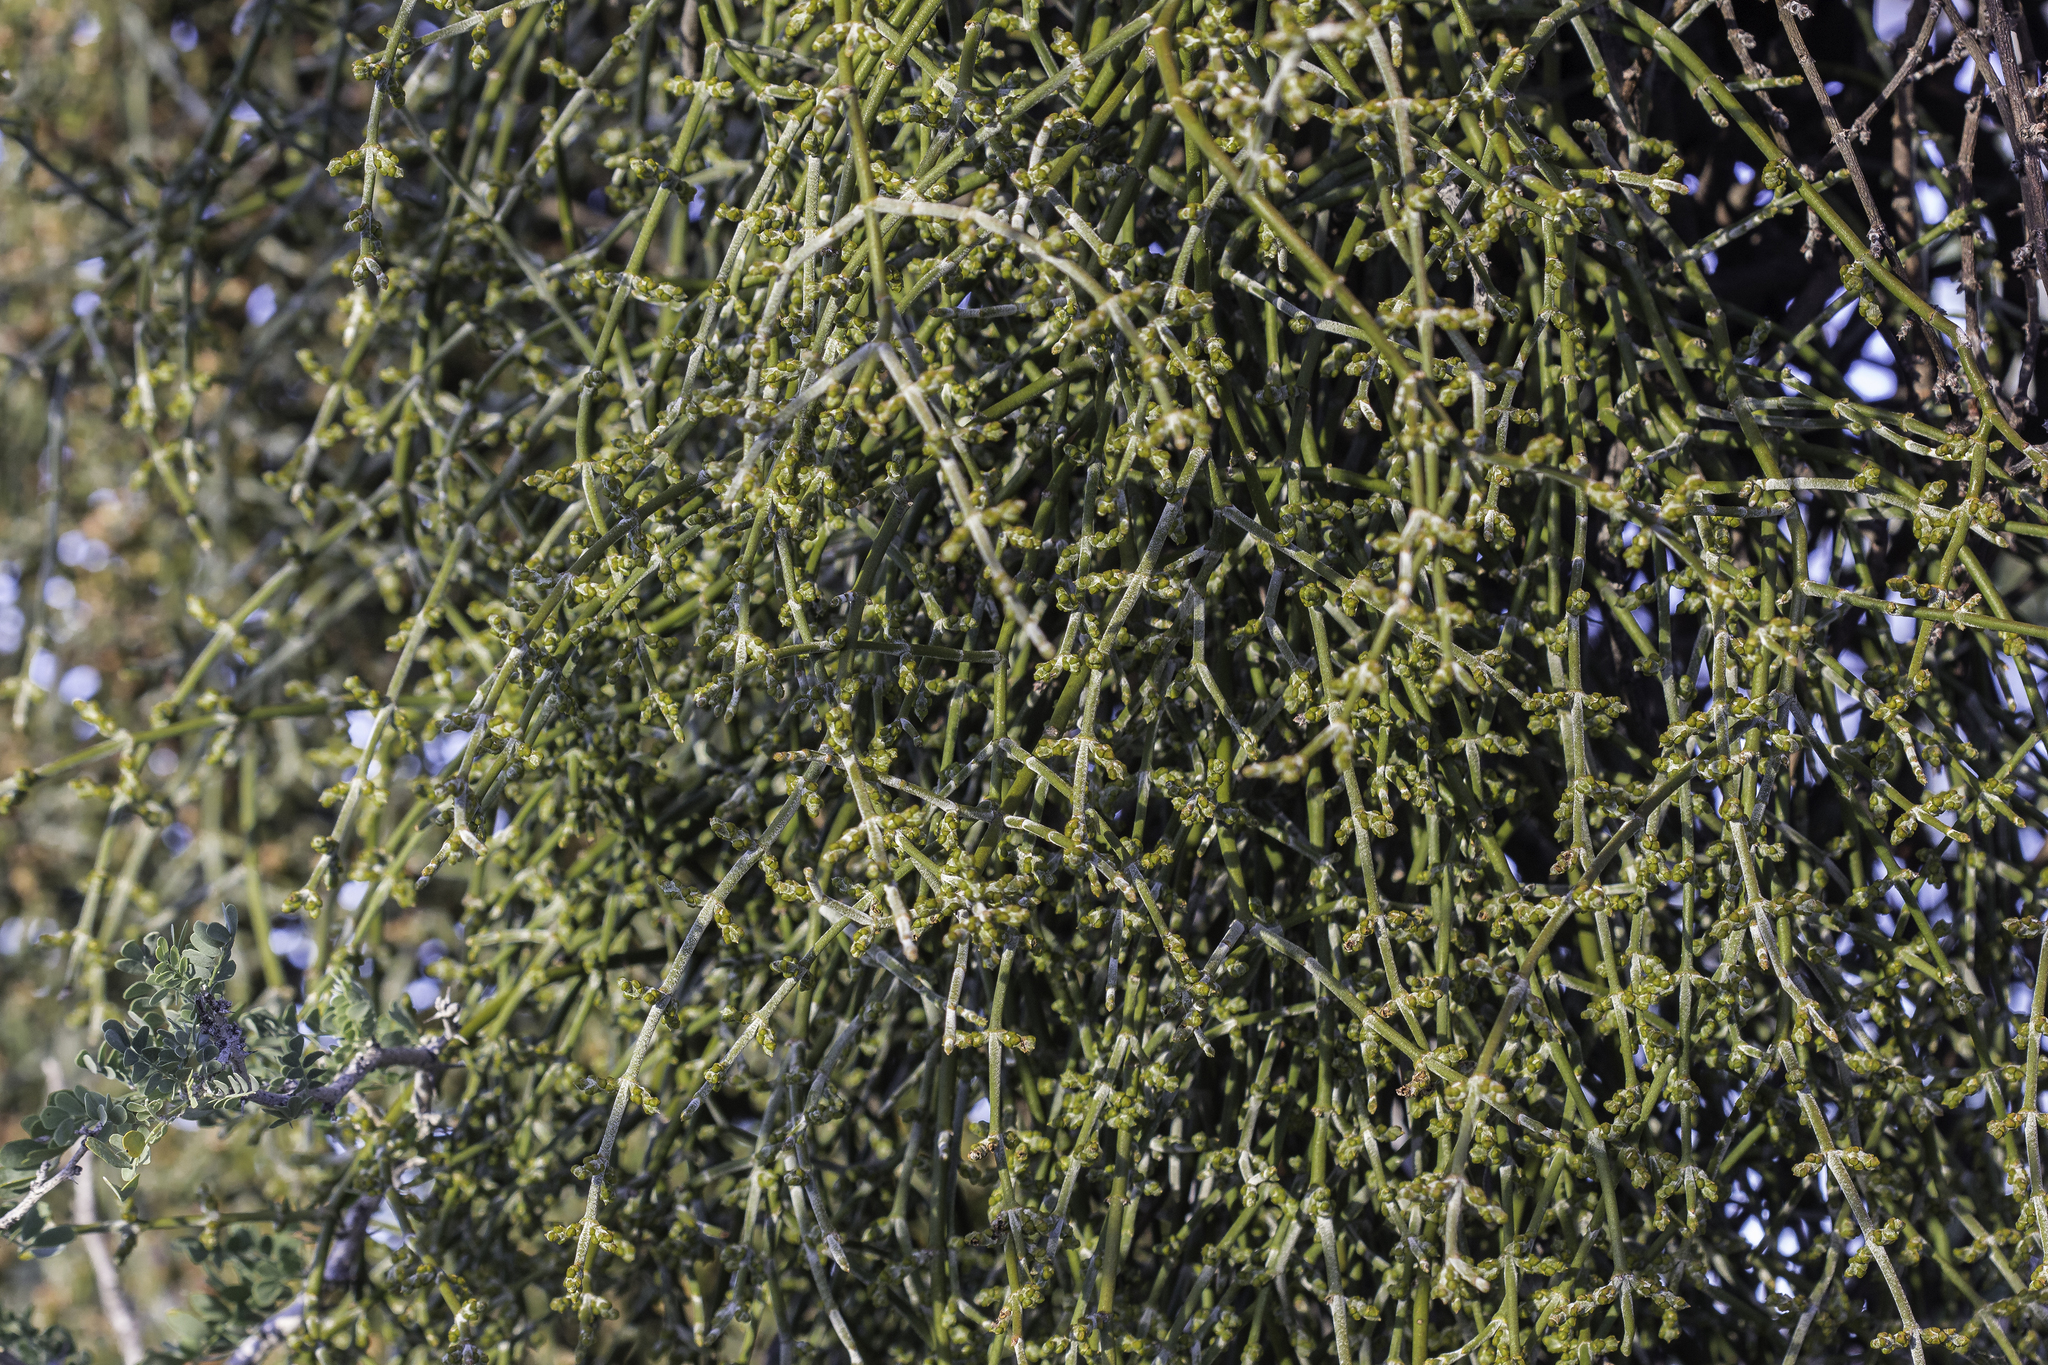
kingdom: Plantae
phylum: Tracheophyta
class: Magnoliopsida
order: Santalales
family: Viscaceae
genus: Phoradendron
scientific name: Phoradendron californicum
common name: Acacia mistletoe
